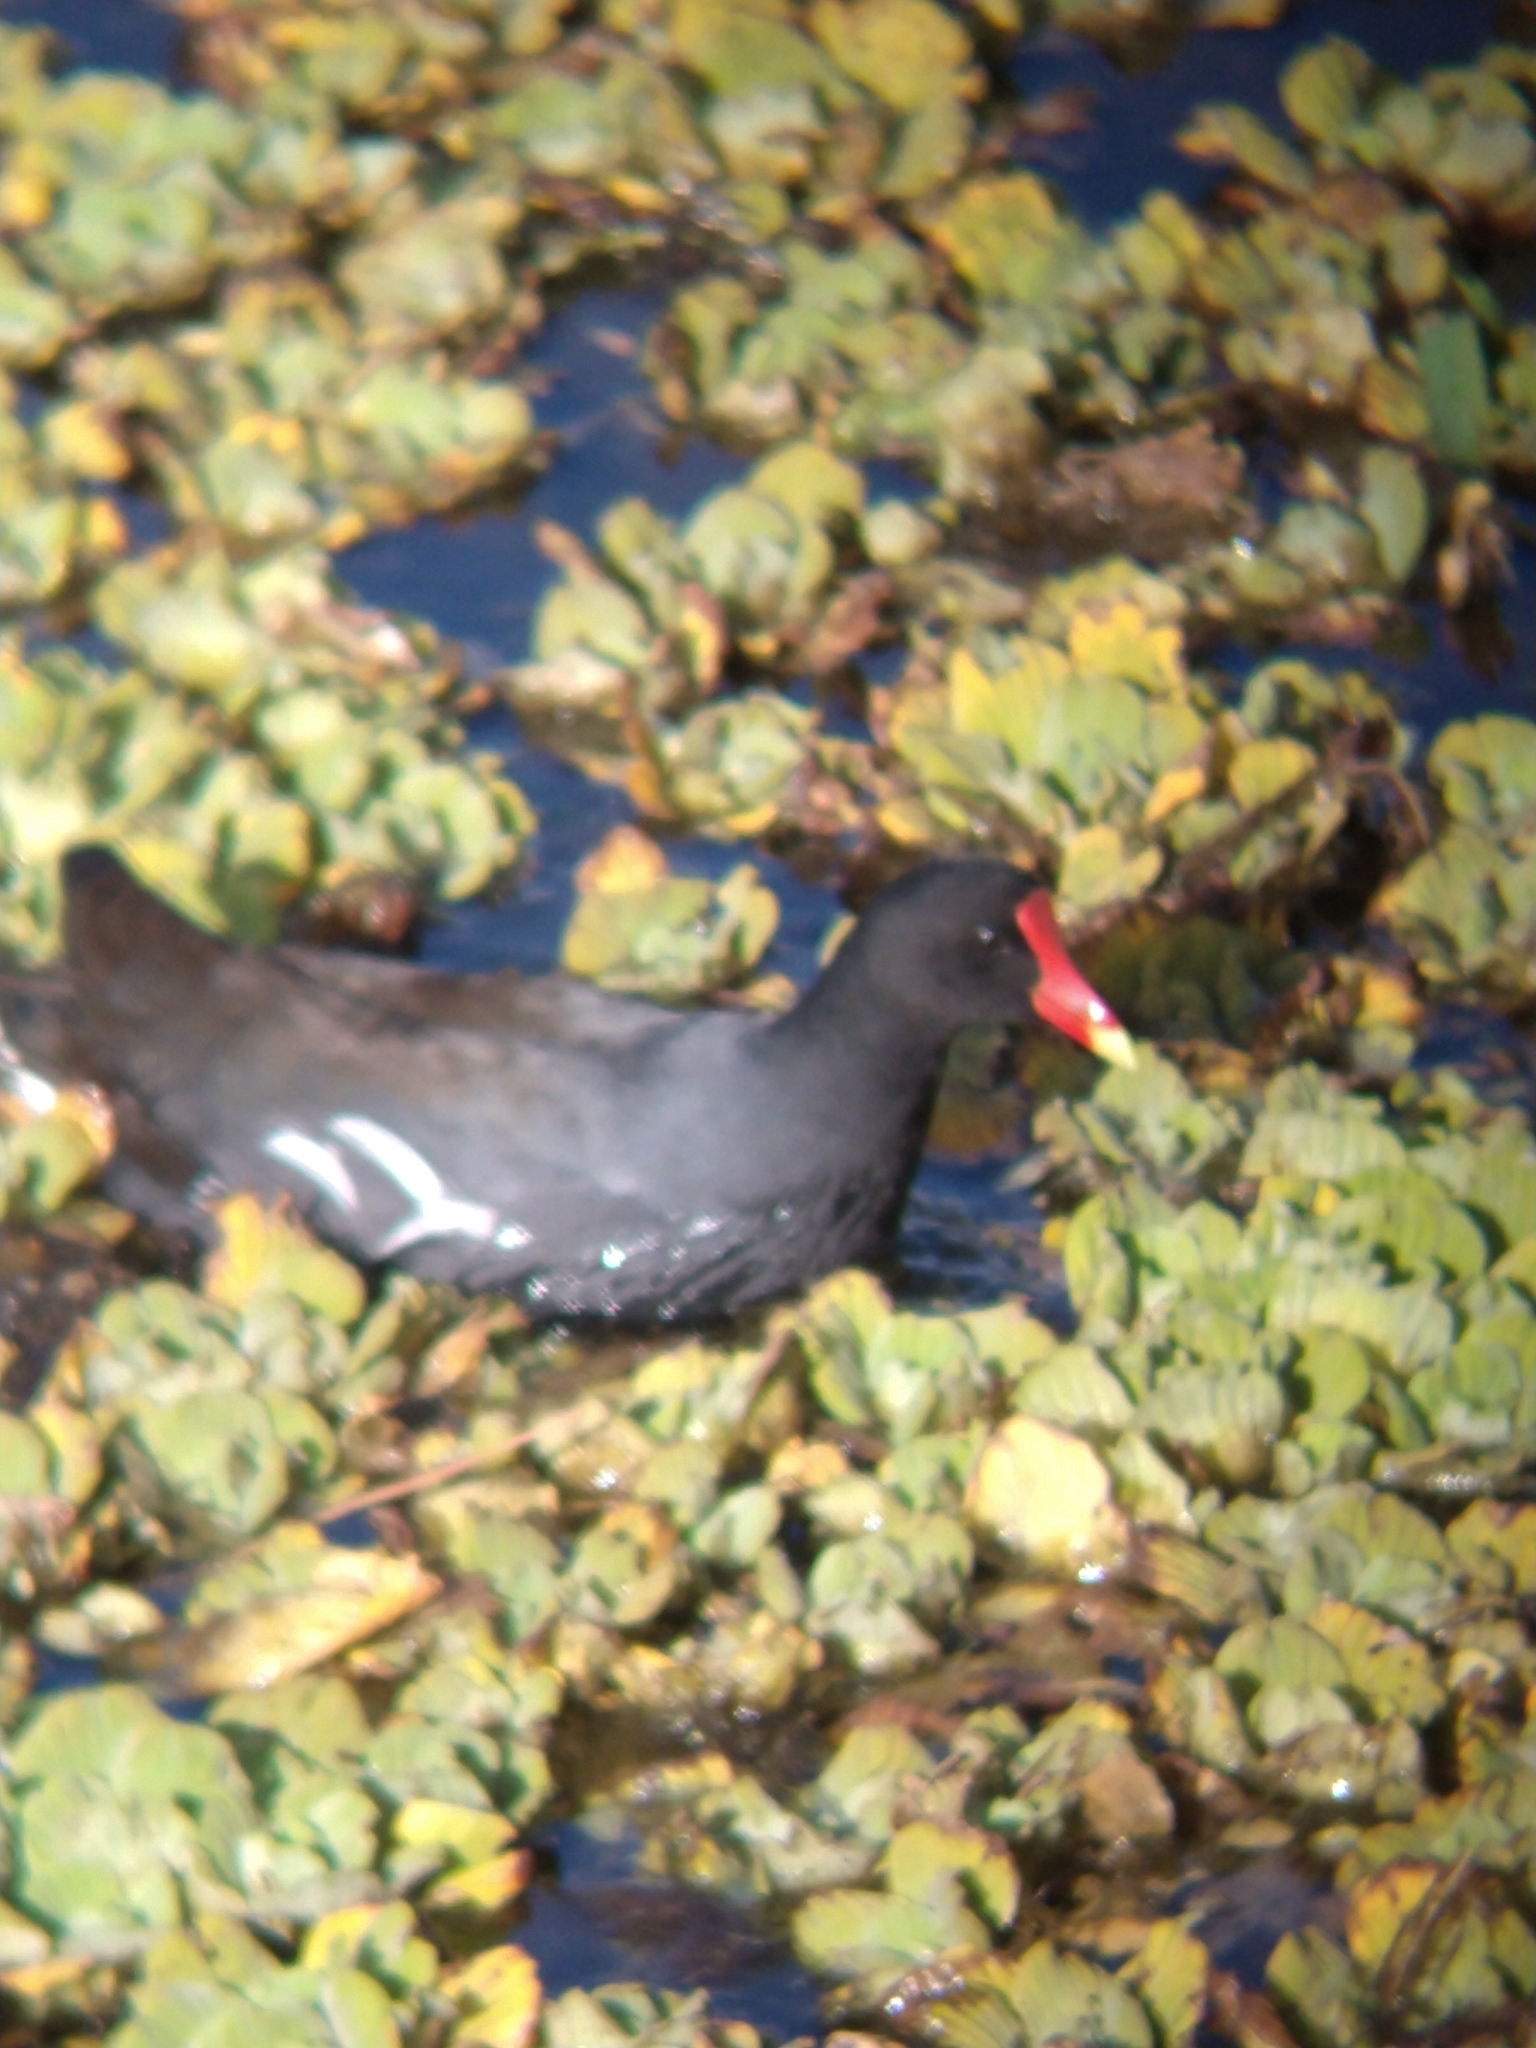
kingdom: Animalia
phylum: Chordata
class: Aves
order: Gruiformes
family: Rallidae
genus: Gallinula
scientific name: Gallinula chloropus
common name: Common moorhen
